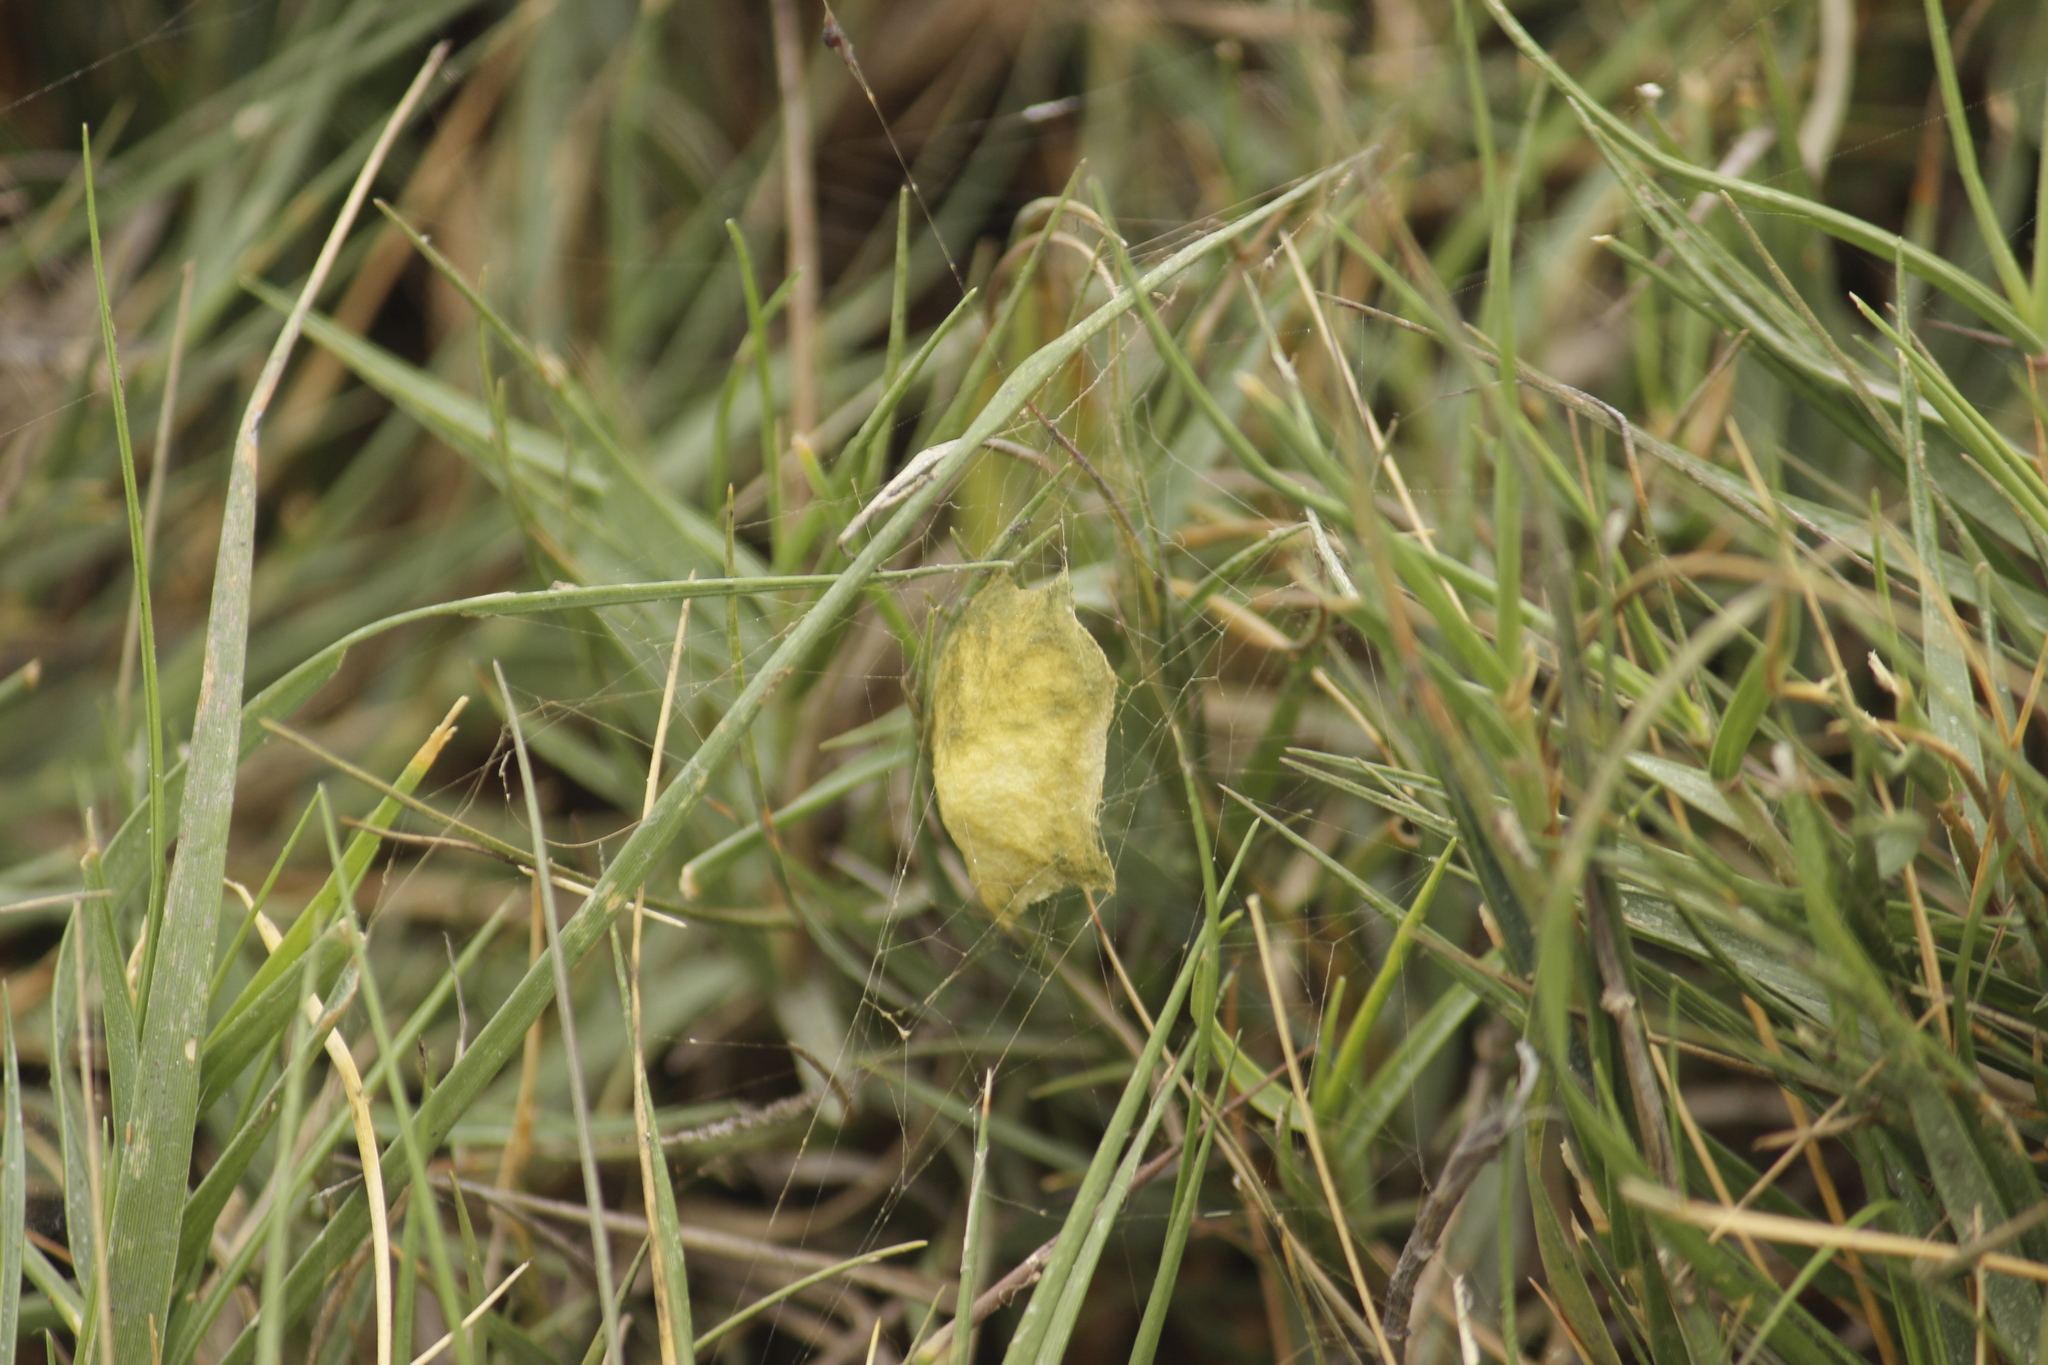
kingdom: Animalia
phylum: Arthropoda
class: Arachnida
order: Araneae
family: Araneidae
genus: Argiope
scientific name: Argiope argentata
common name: Orb weavers
